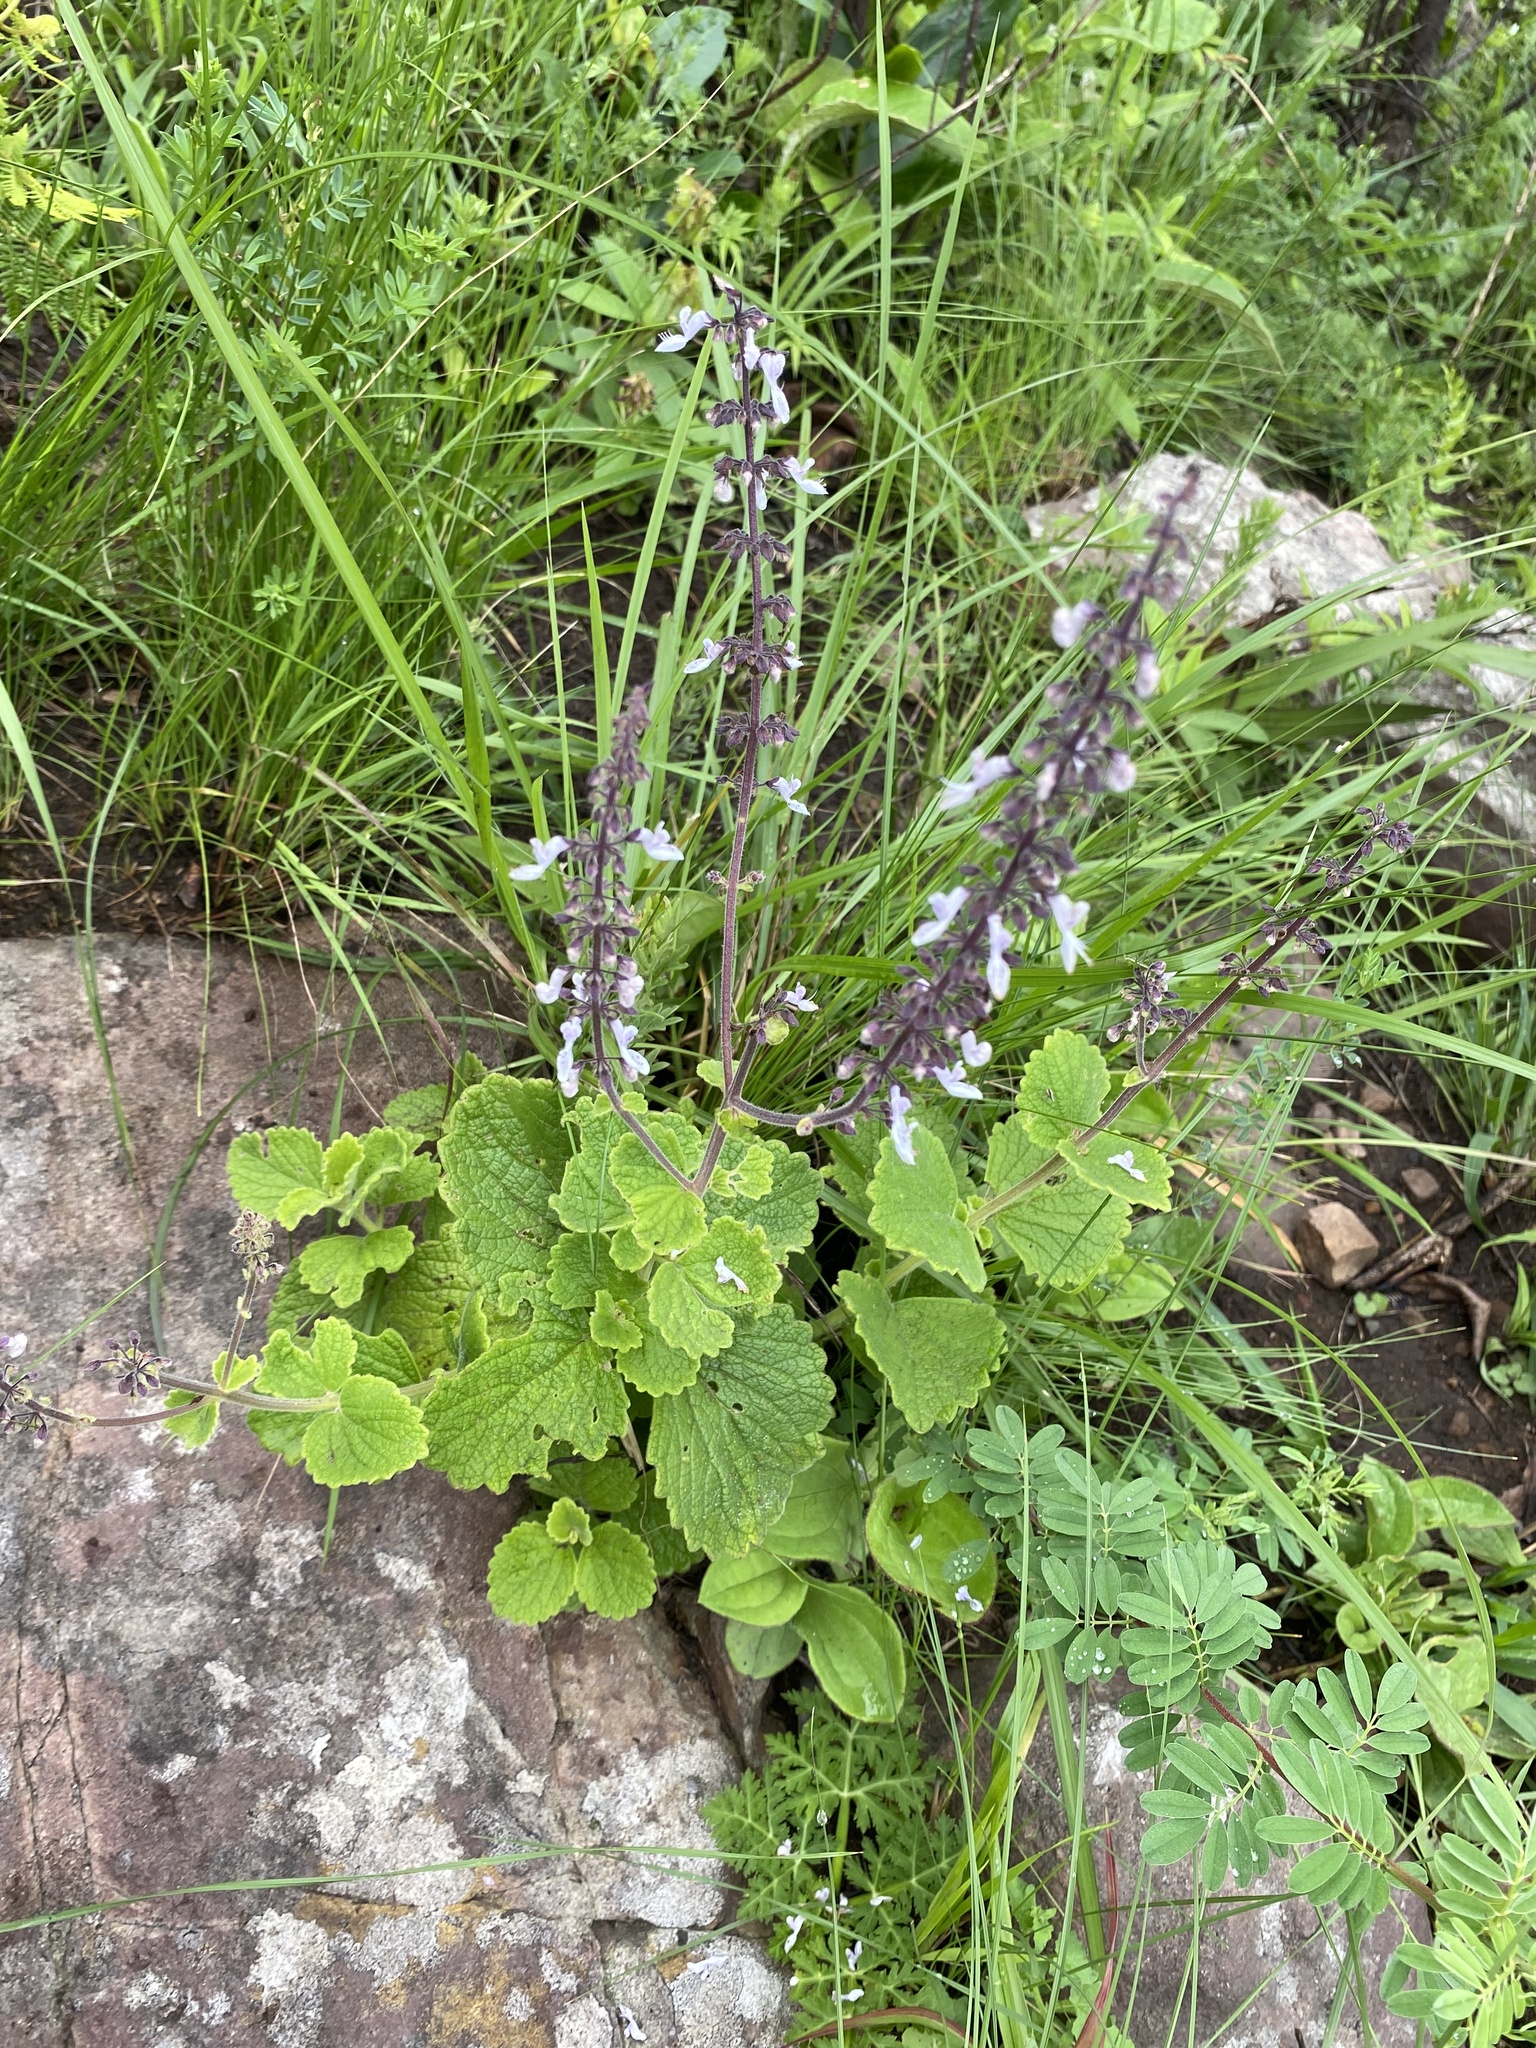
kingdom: Plantae
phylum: Tracheophyta
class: Magnoliopsida
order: Lamiales
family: Lamiaceae
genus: Coleus
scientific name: Coleus hadiensis
